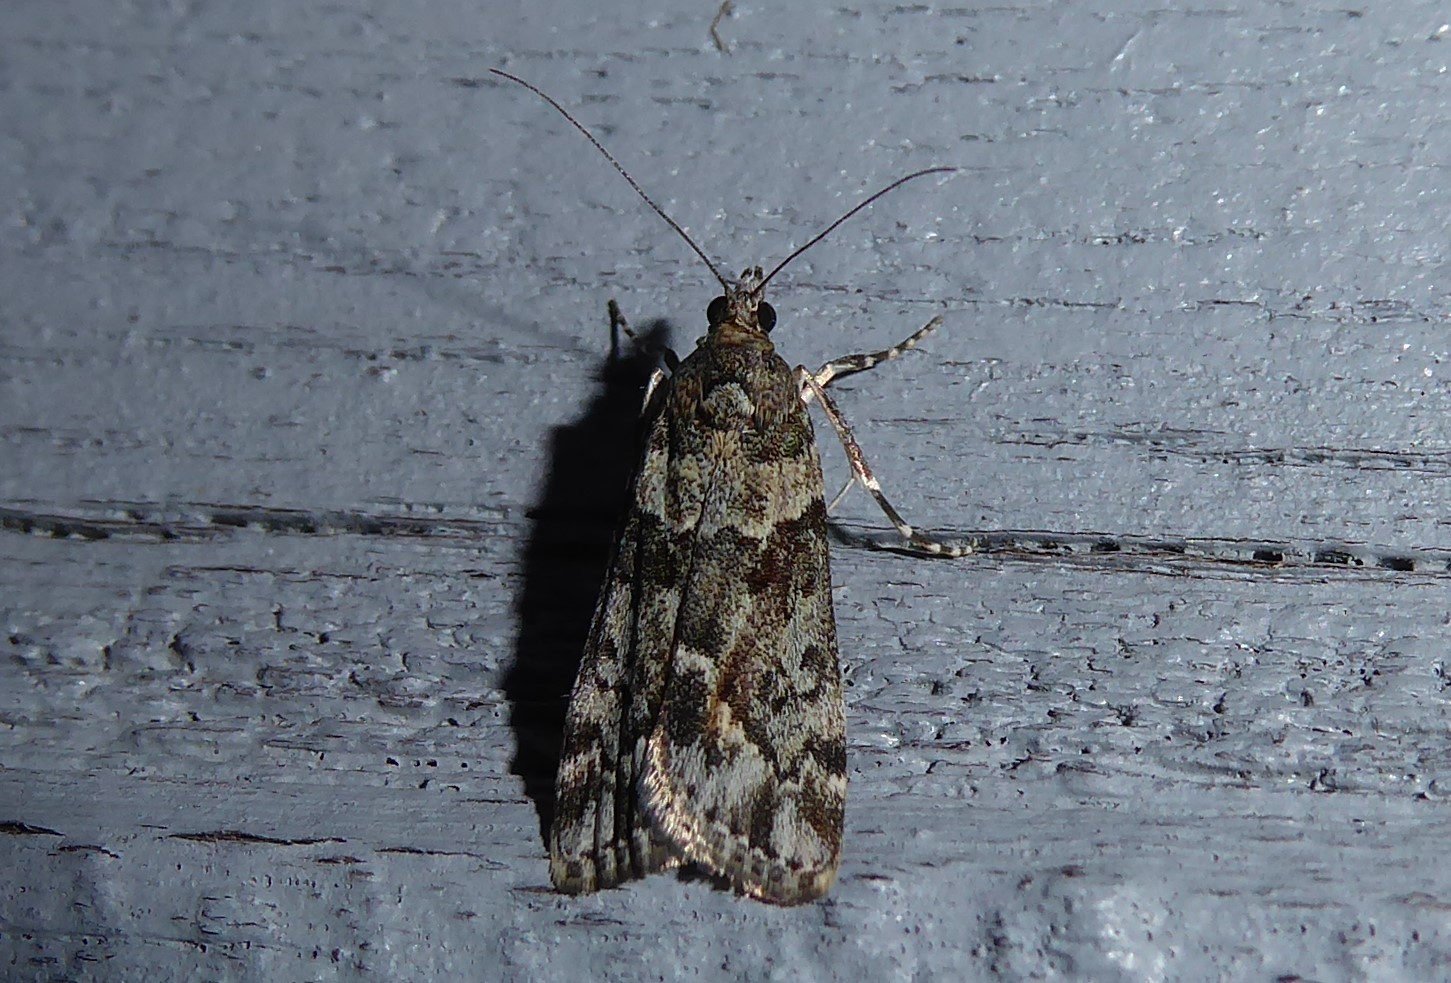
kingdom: Animalia
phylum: Arthropoda
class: Insecta
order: Lepidoptera
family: Crambidae
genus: Eudonia
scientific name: Eudonia submarginalis
